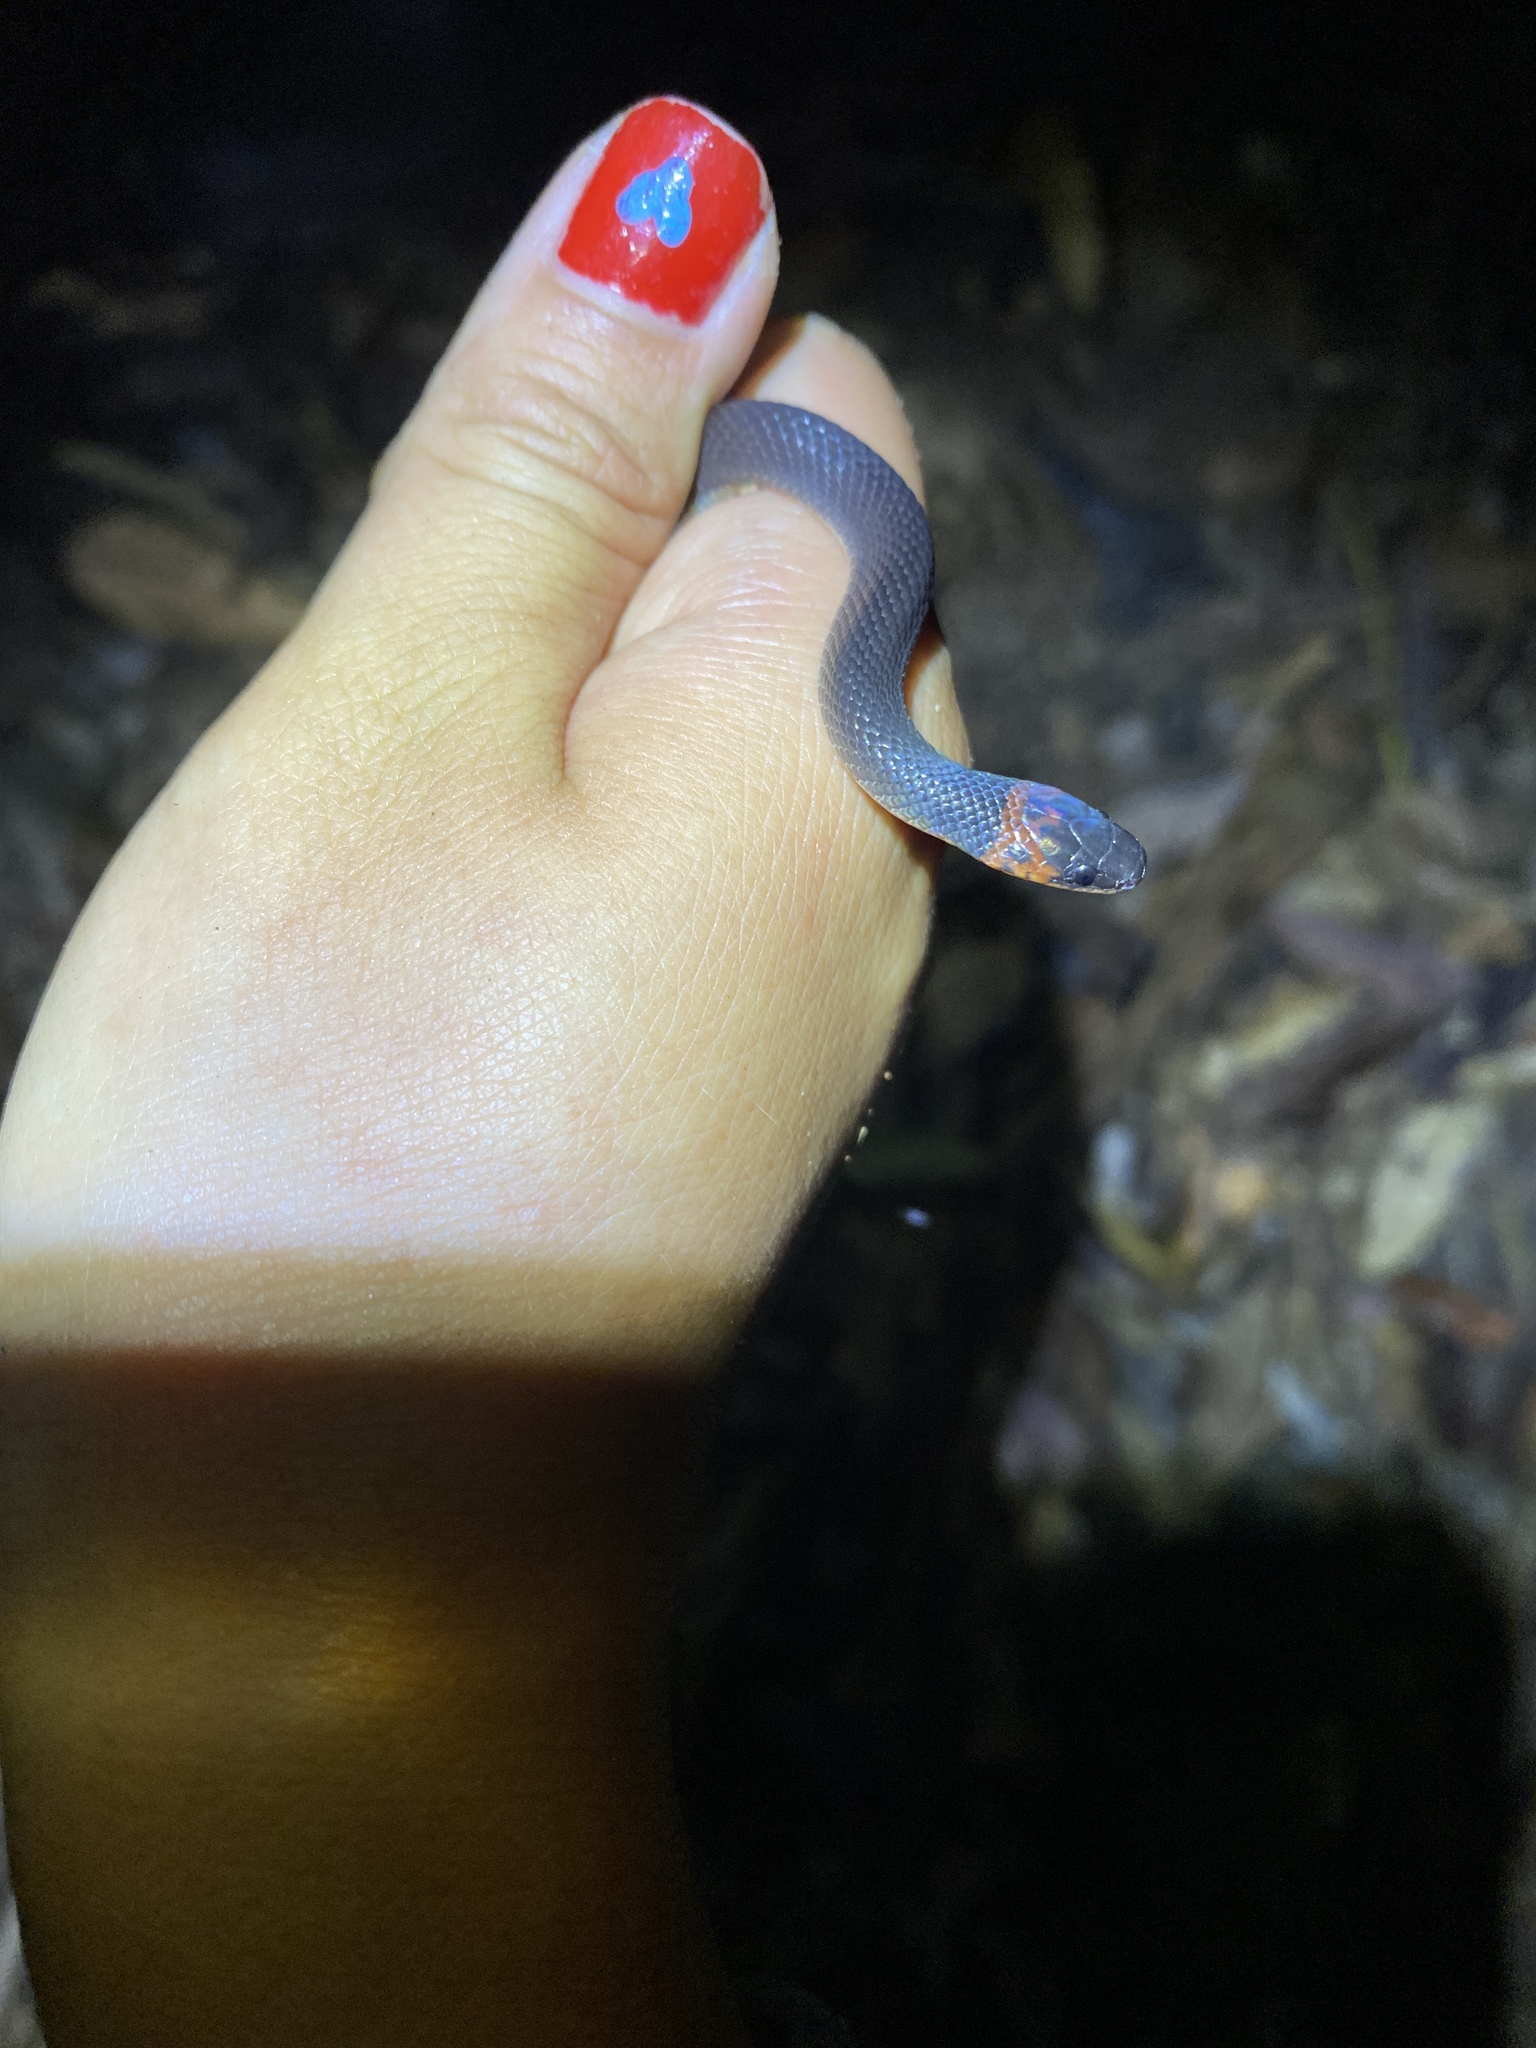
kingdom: Animalia
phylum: Chordata
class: Squamata
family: Colubridae
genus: Ninia
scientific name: Ninia atrata
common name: Hallowell's coffee snake
